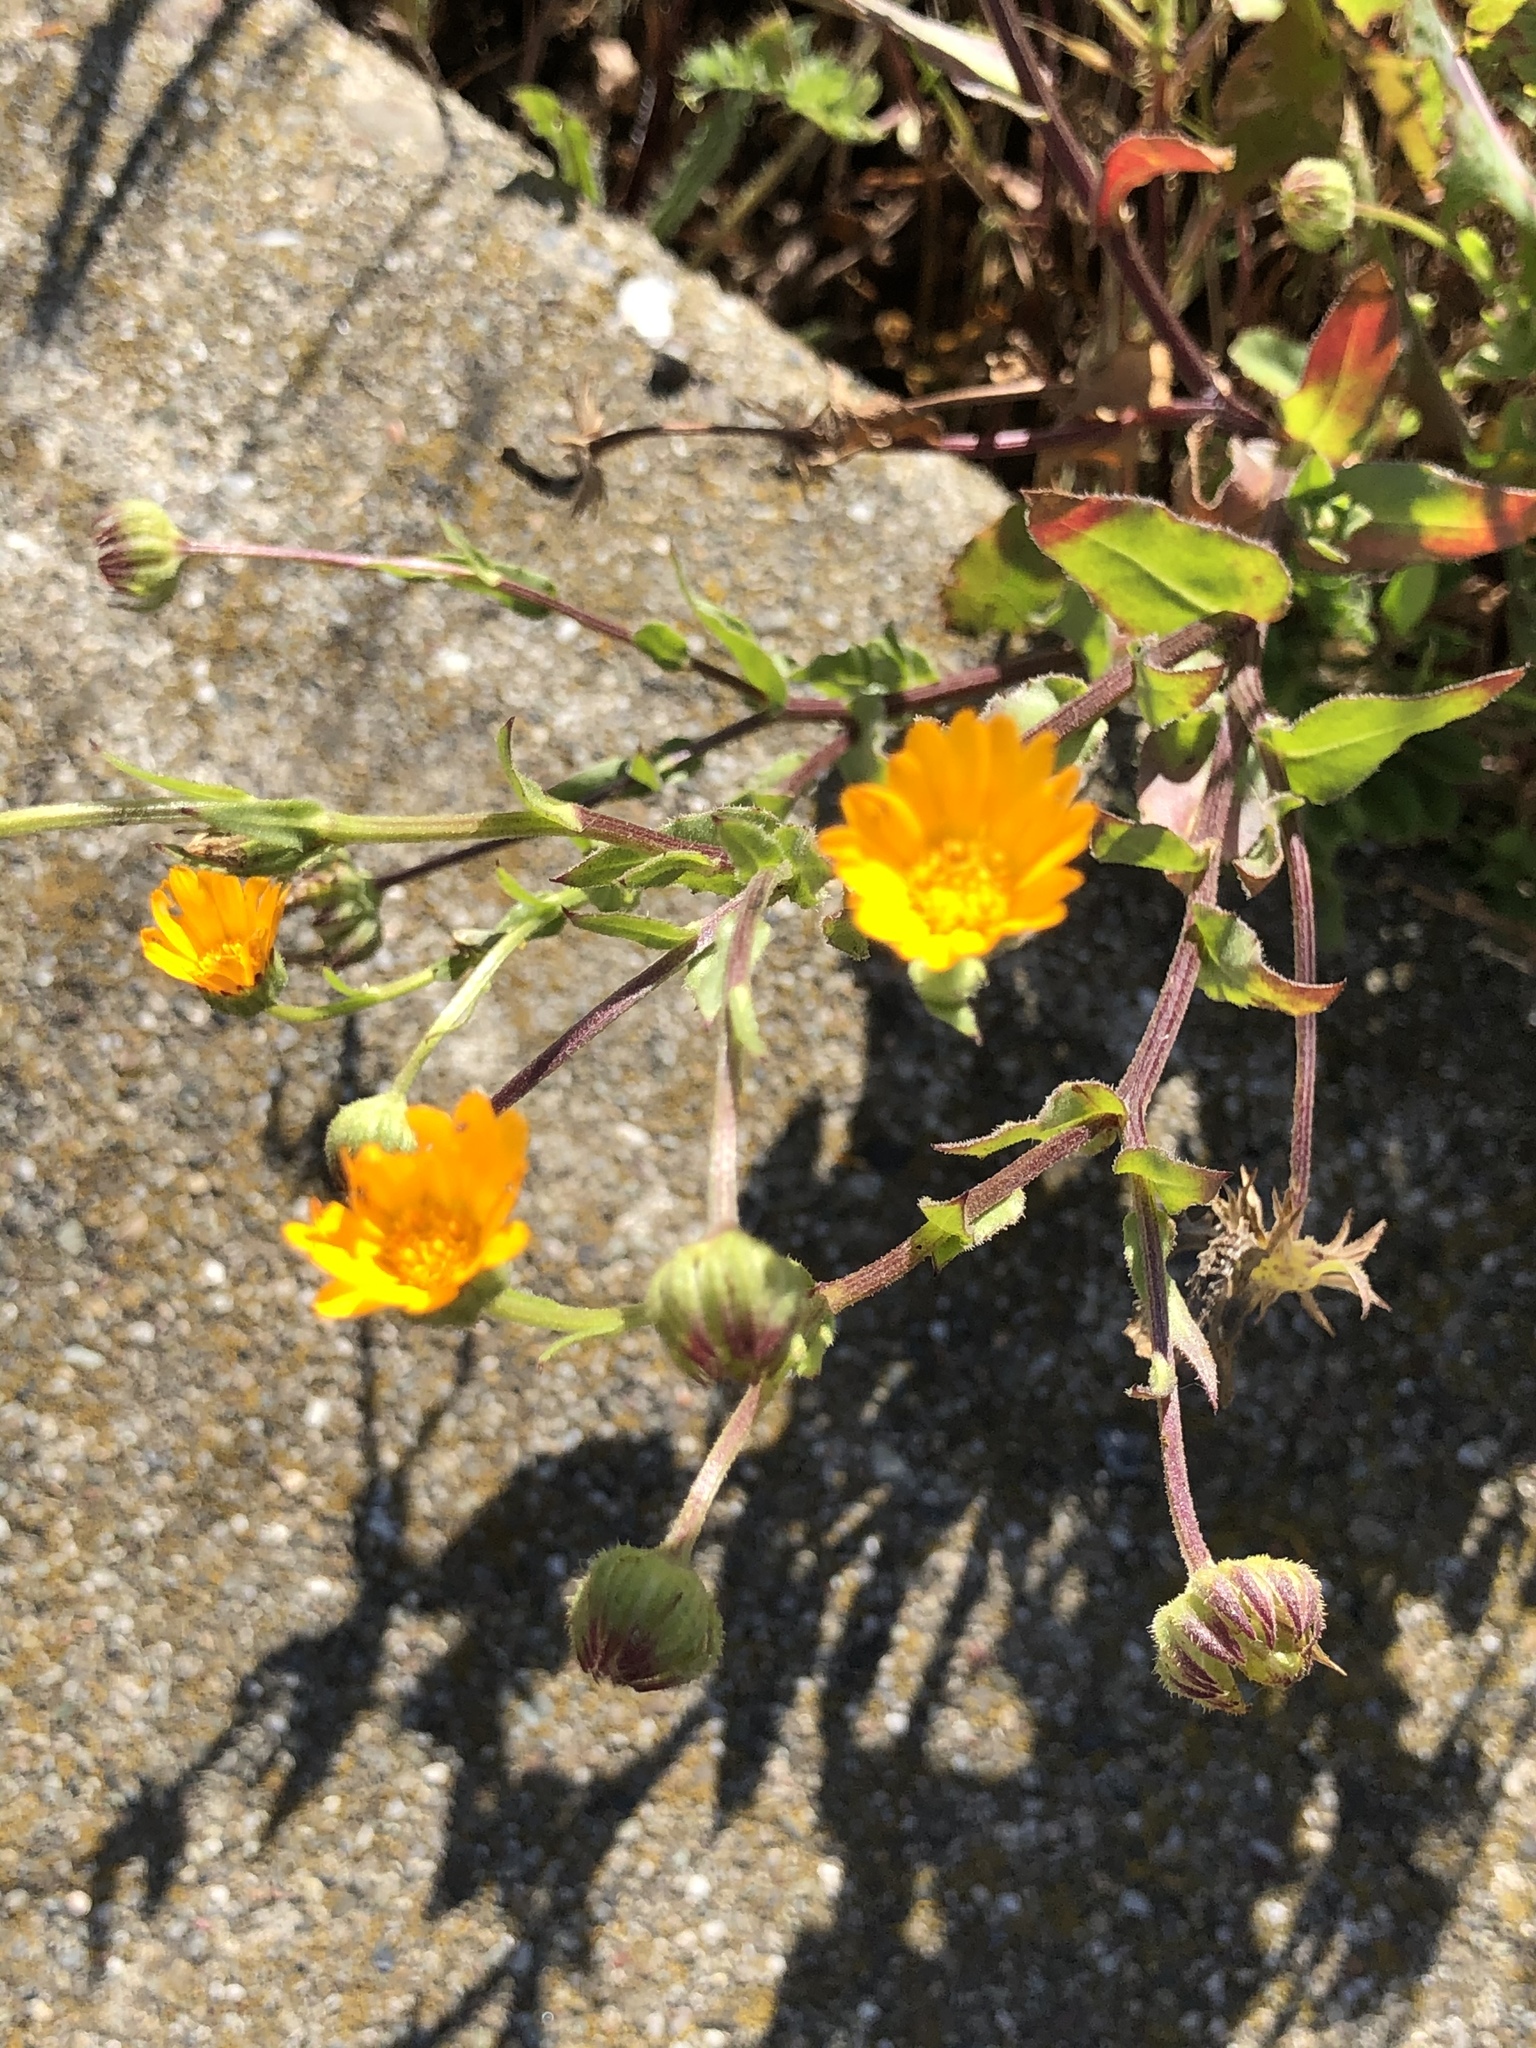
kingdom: Plantae
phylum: Tracheophyta
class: Magnoliopsida
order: Asterales
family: Asteraceae
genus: Calendula
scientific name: Calendula arvensis
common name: Field marigold
